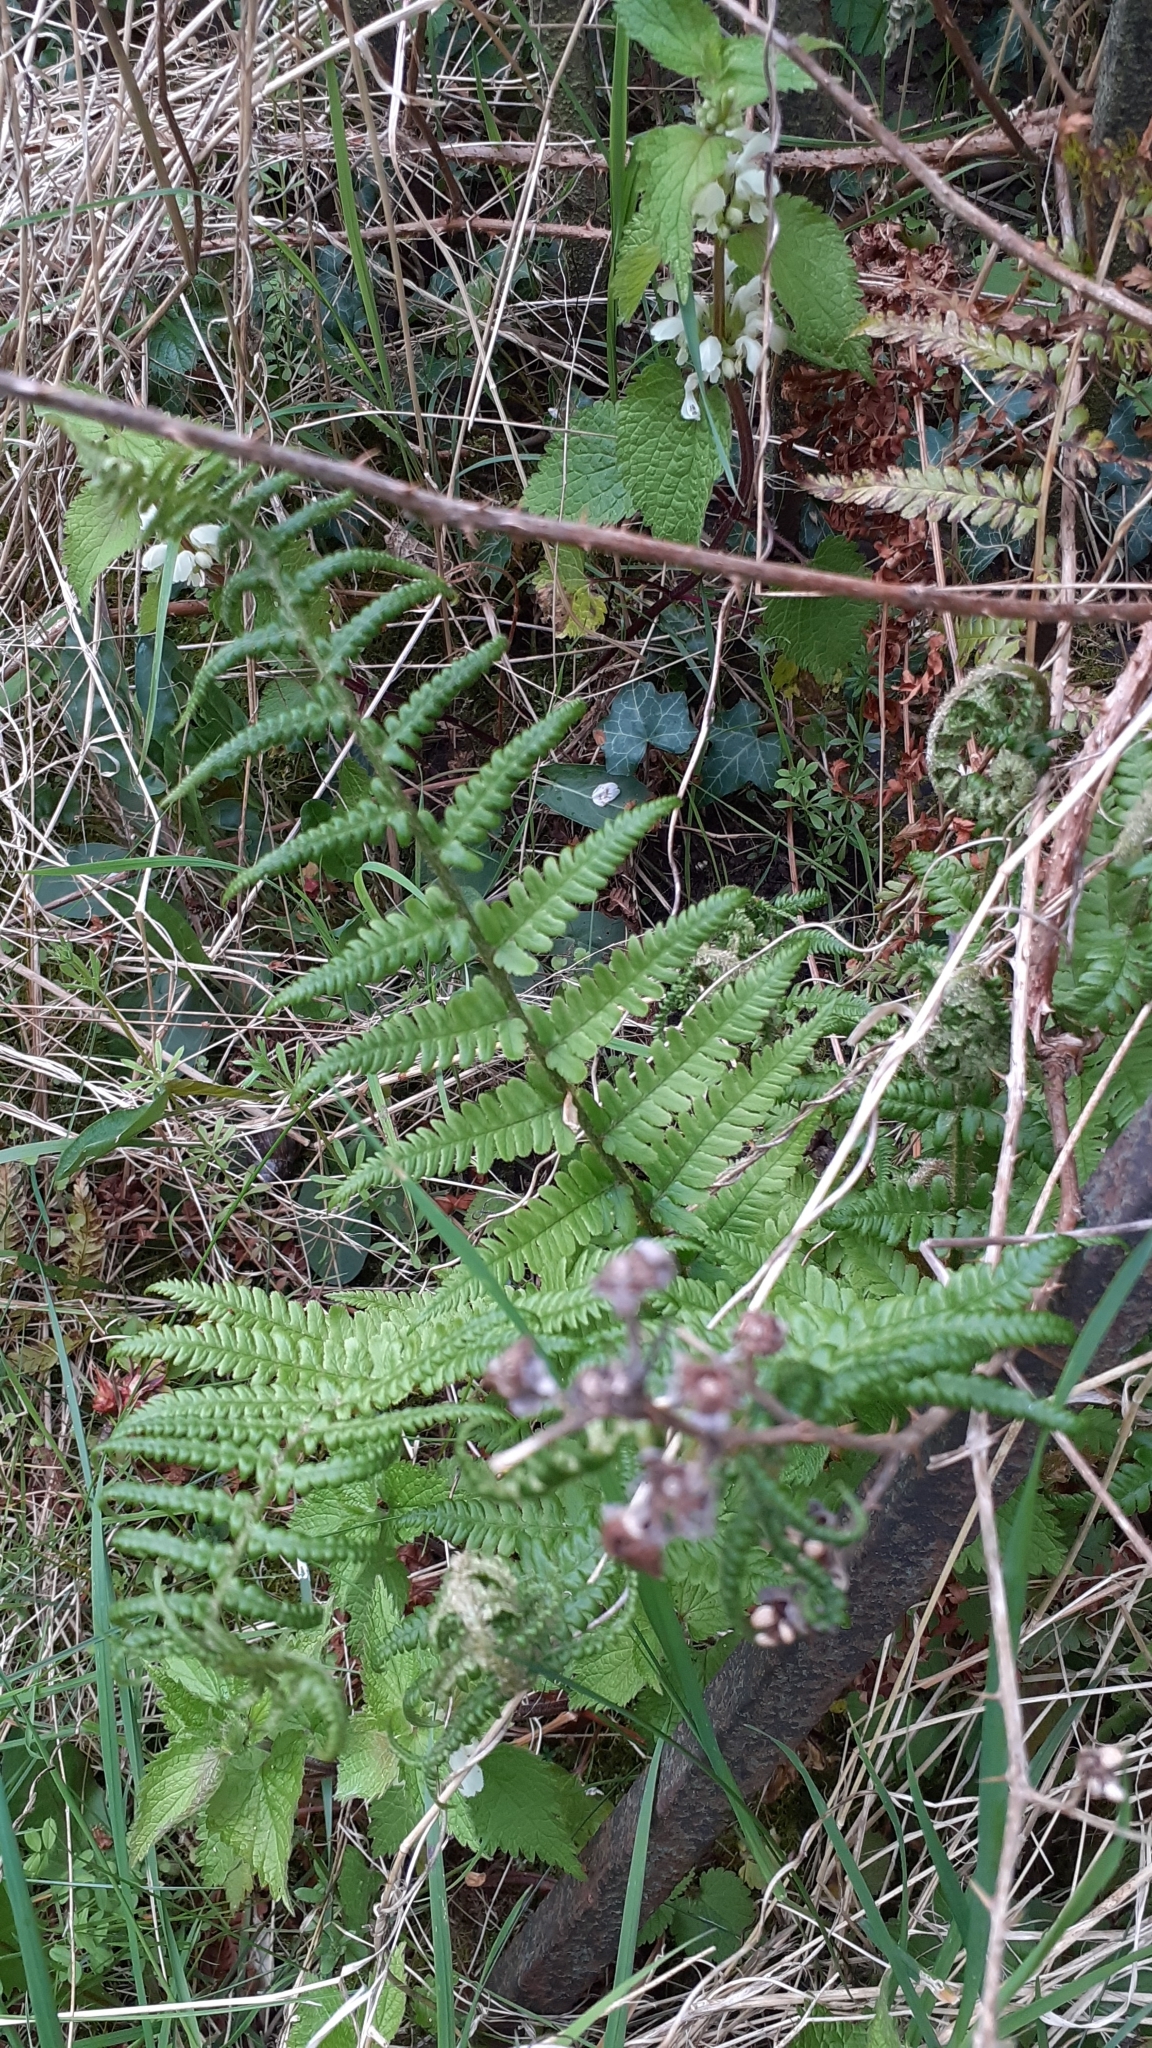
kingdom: Plantae
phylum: Tracheophyta
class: Polypodiopsida
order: Polypodiales
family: Dryopteridaceae
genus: Dryopteris
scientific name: Dryopteris filix-mas
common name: Male fern
